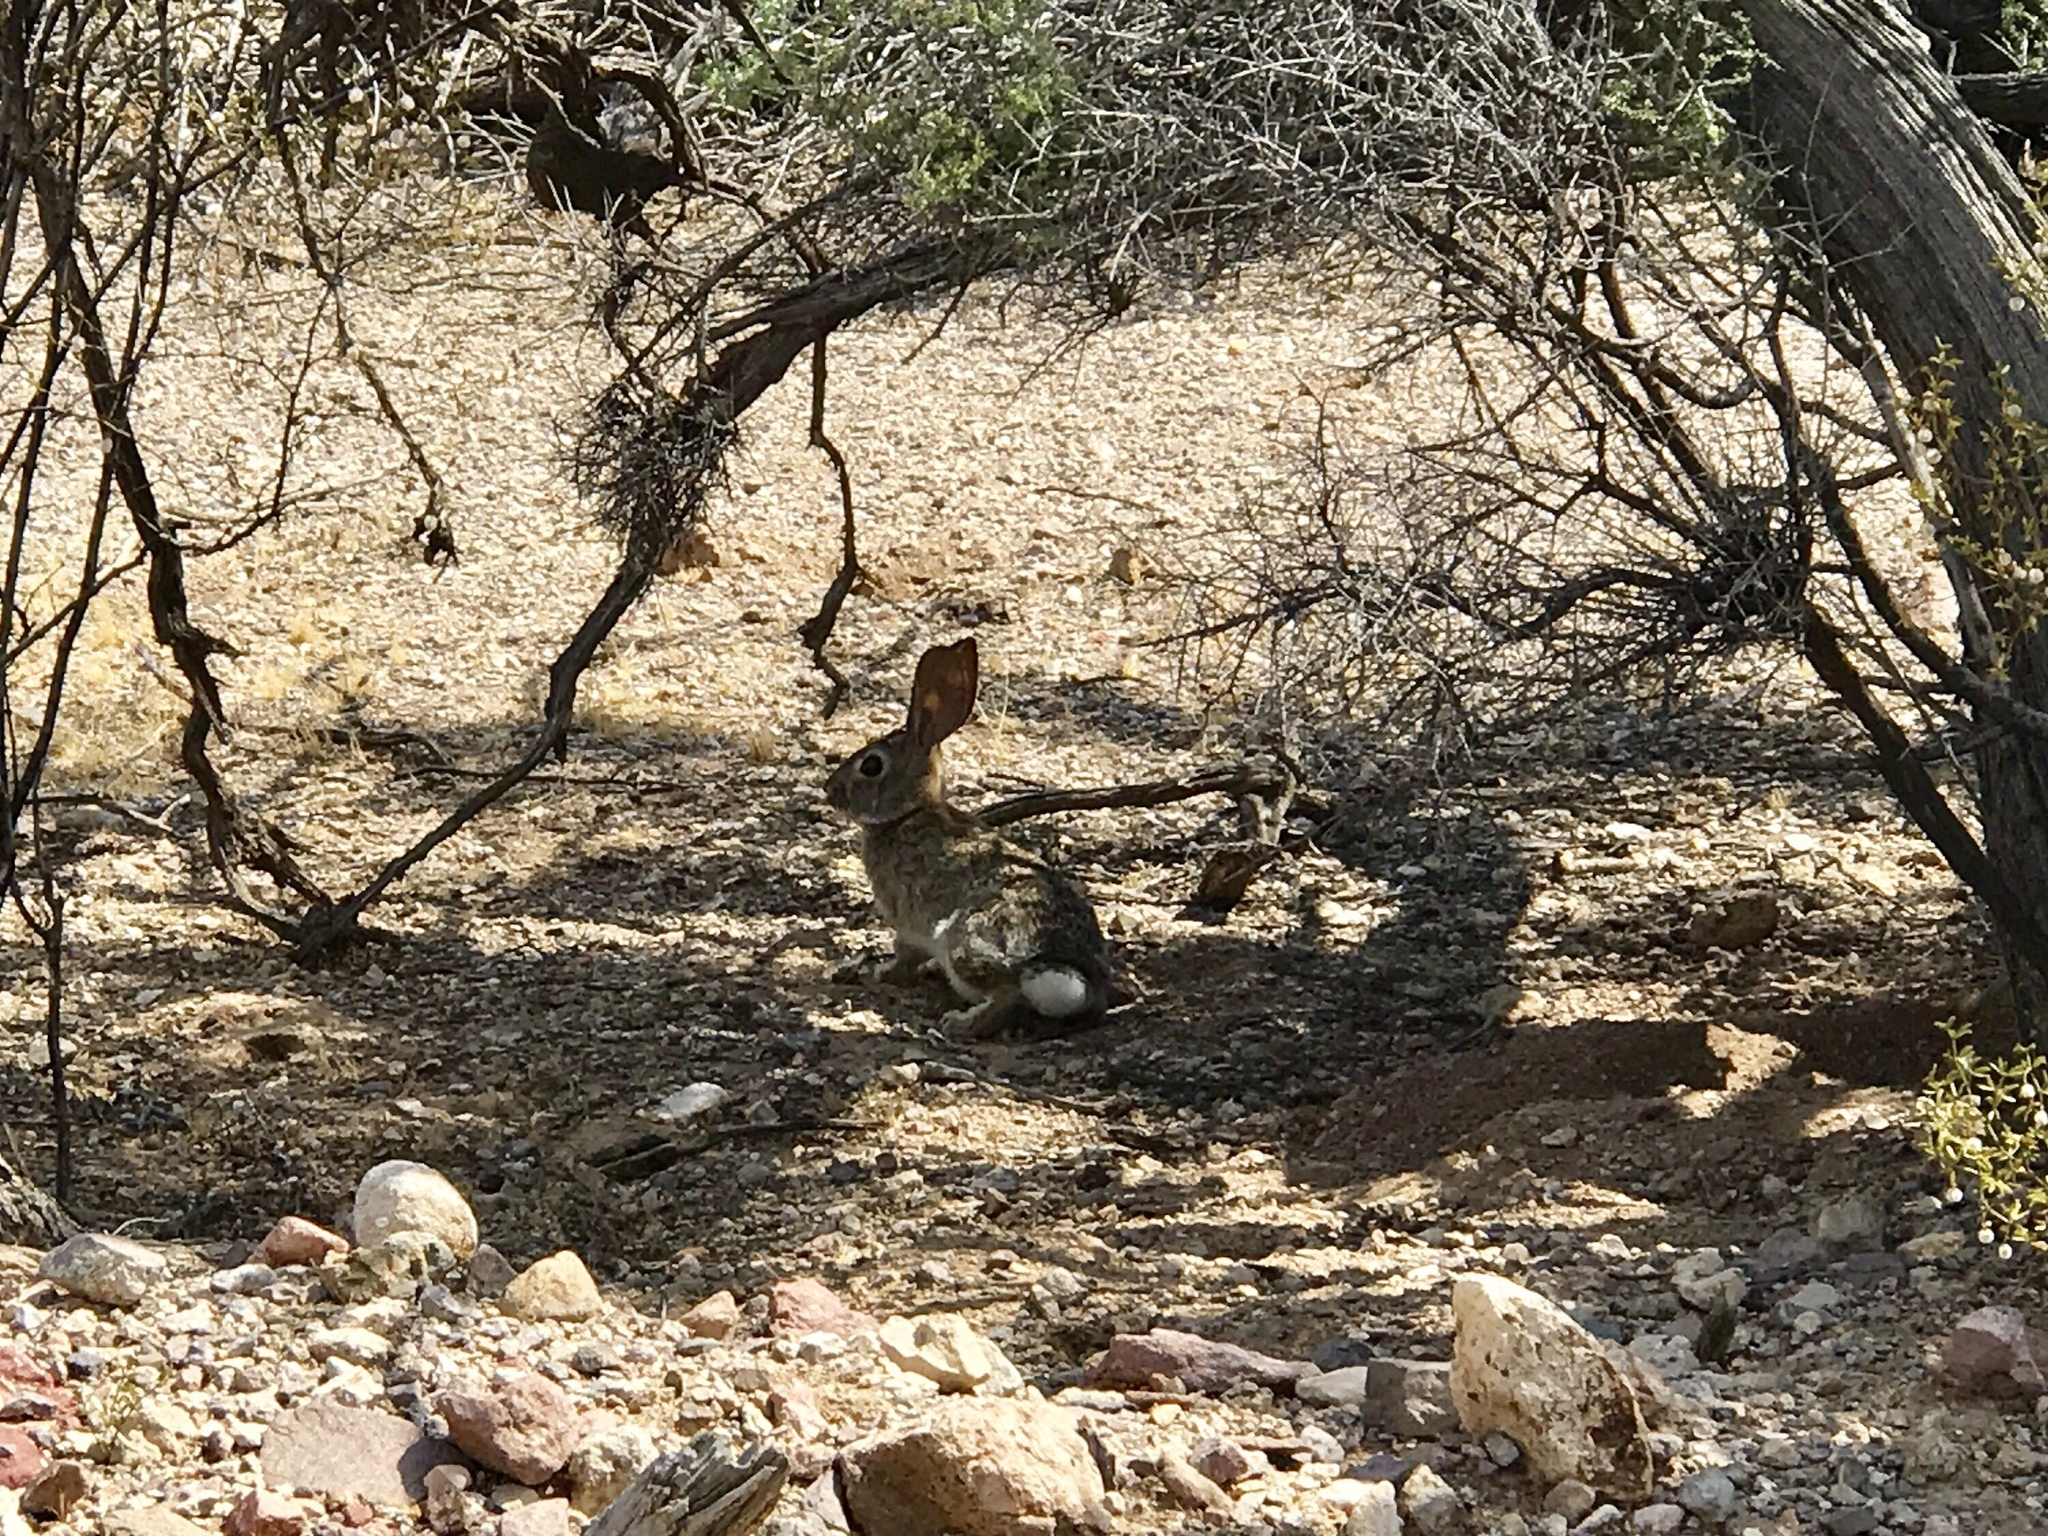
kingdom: Animalia
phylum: Chordata
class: Mammalia
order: Lagomorpha
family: Leporidae
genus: Sylvilagus
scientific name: Sylvilagus audubonii
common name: Desert cottontail
